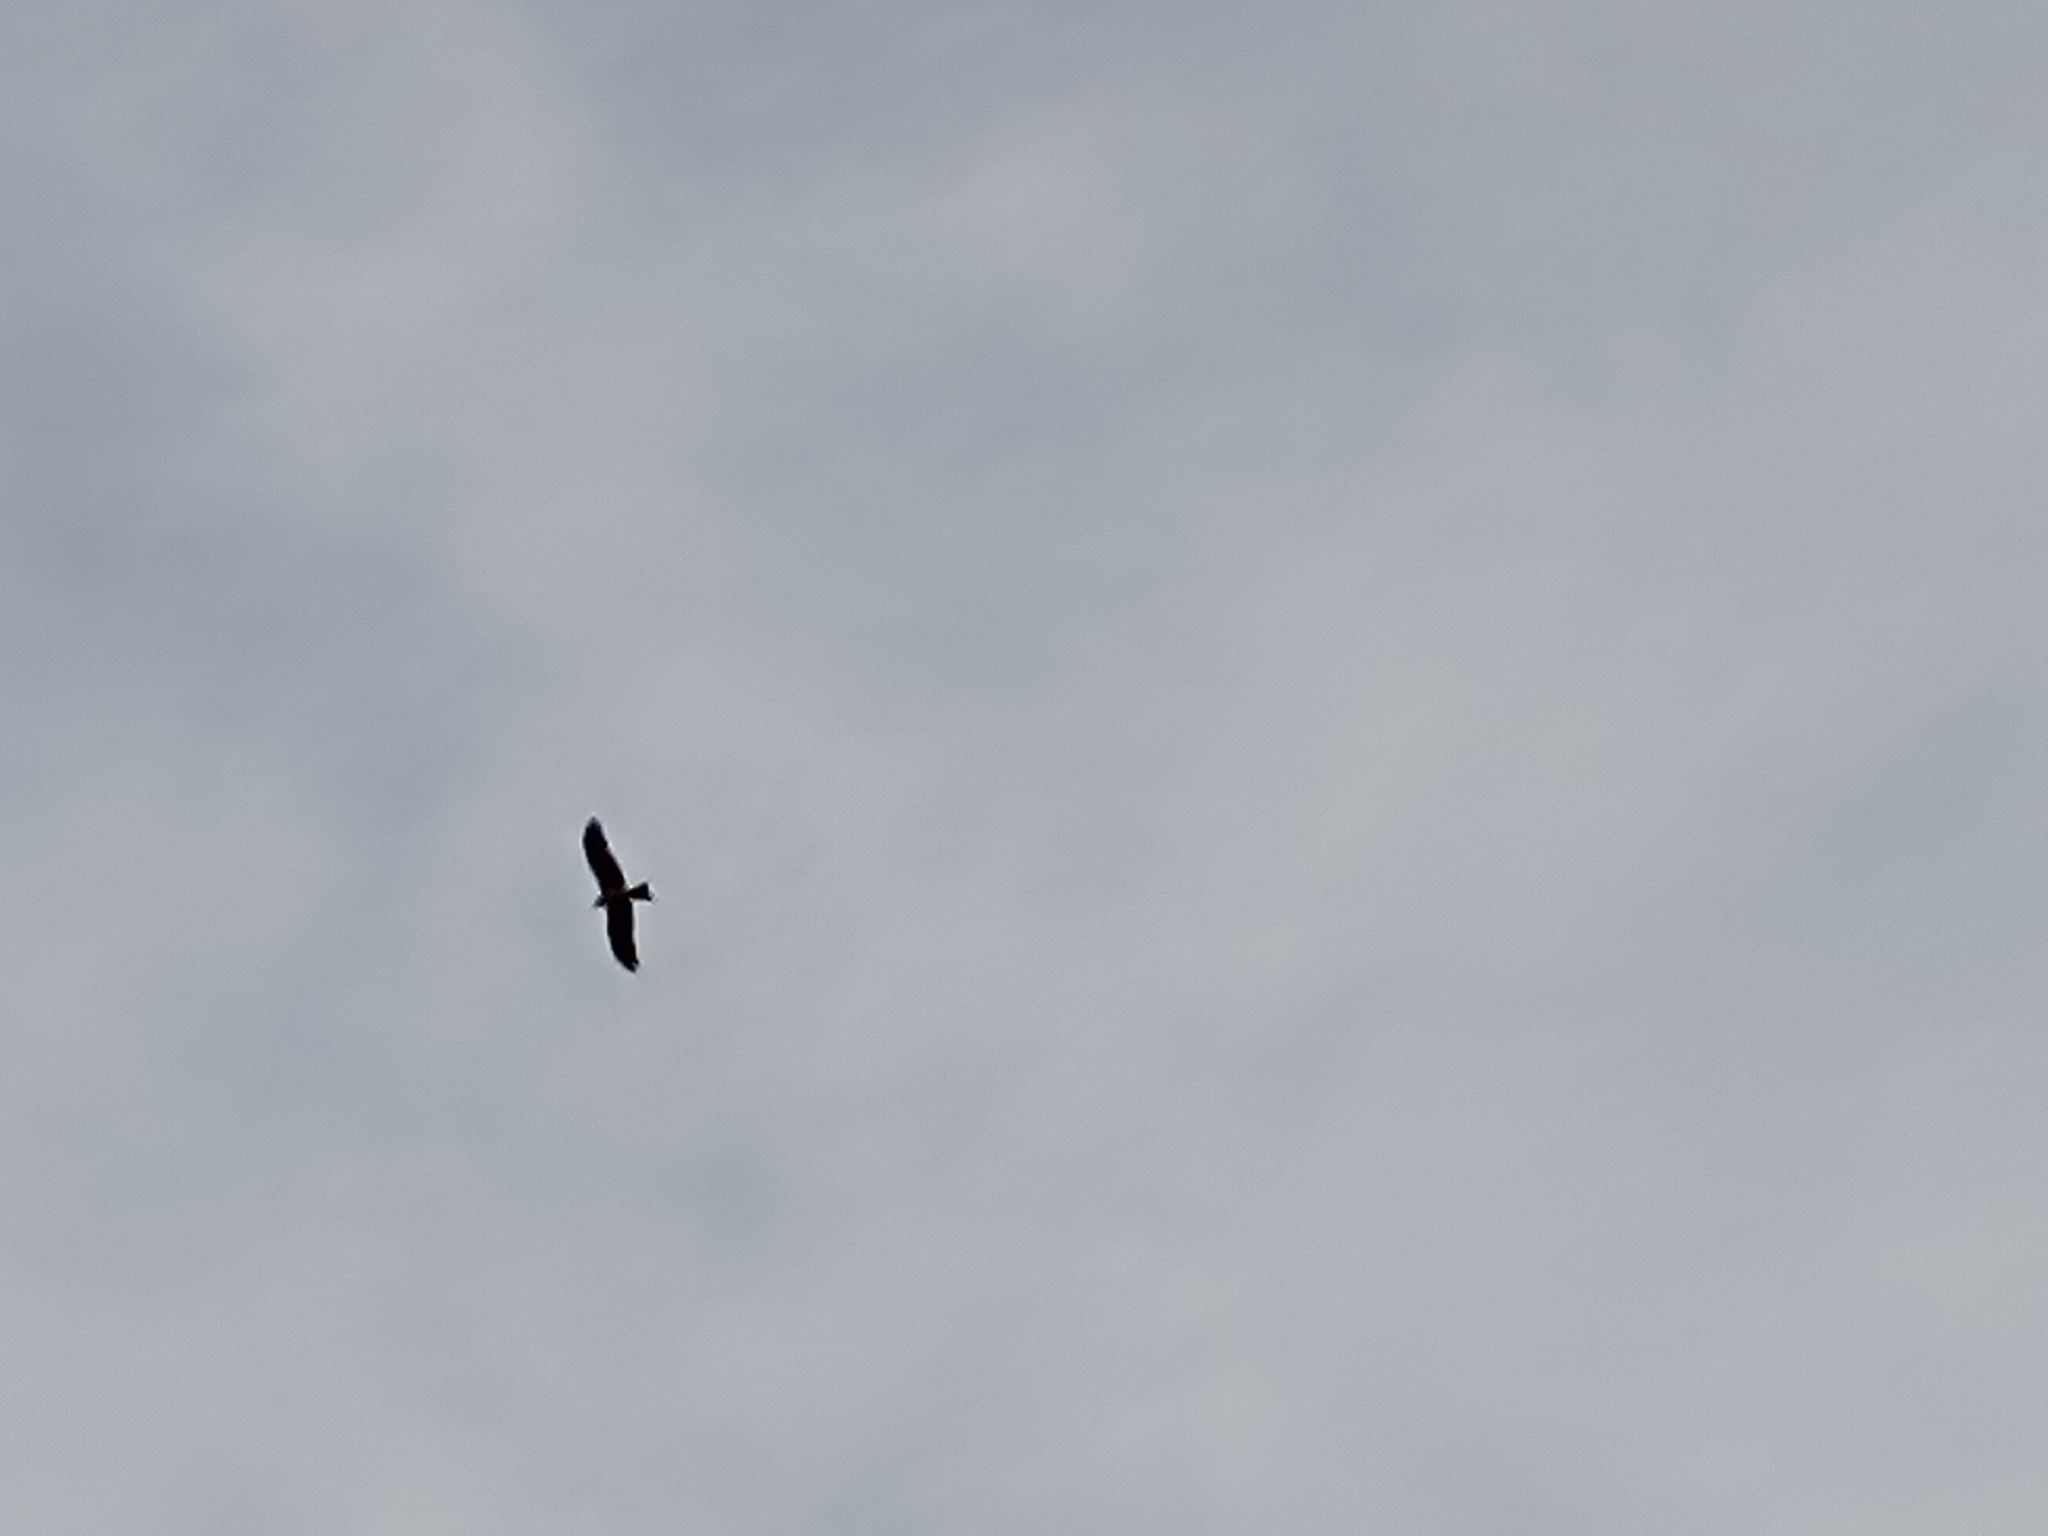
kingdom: Animalia
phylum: Chordata
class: Aves
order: Accipitriformes
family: Accipitridae
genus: Milvus
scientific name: Milvus migrans
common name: Black kite
